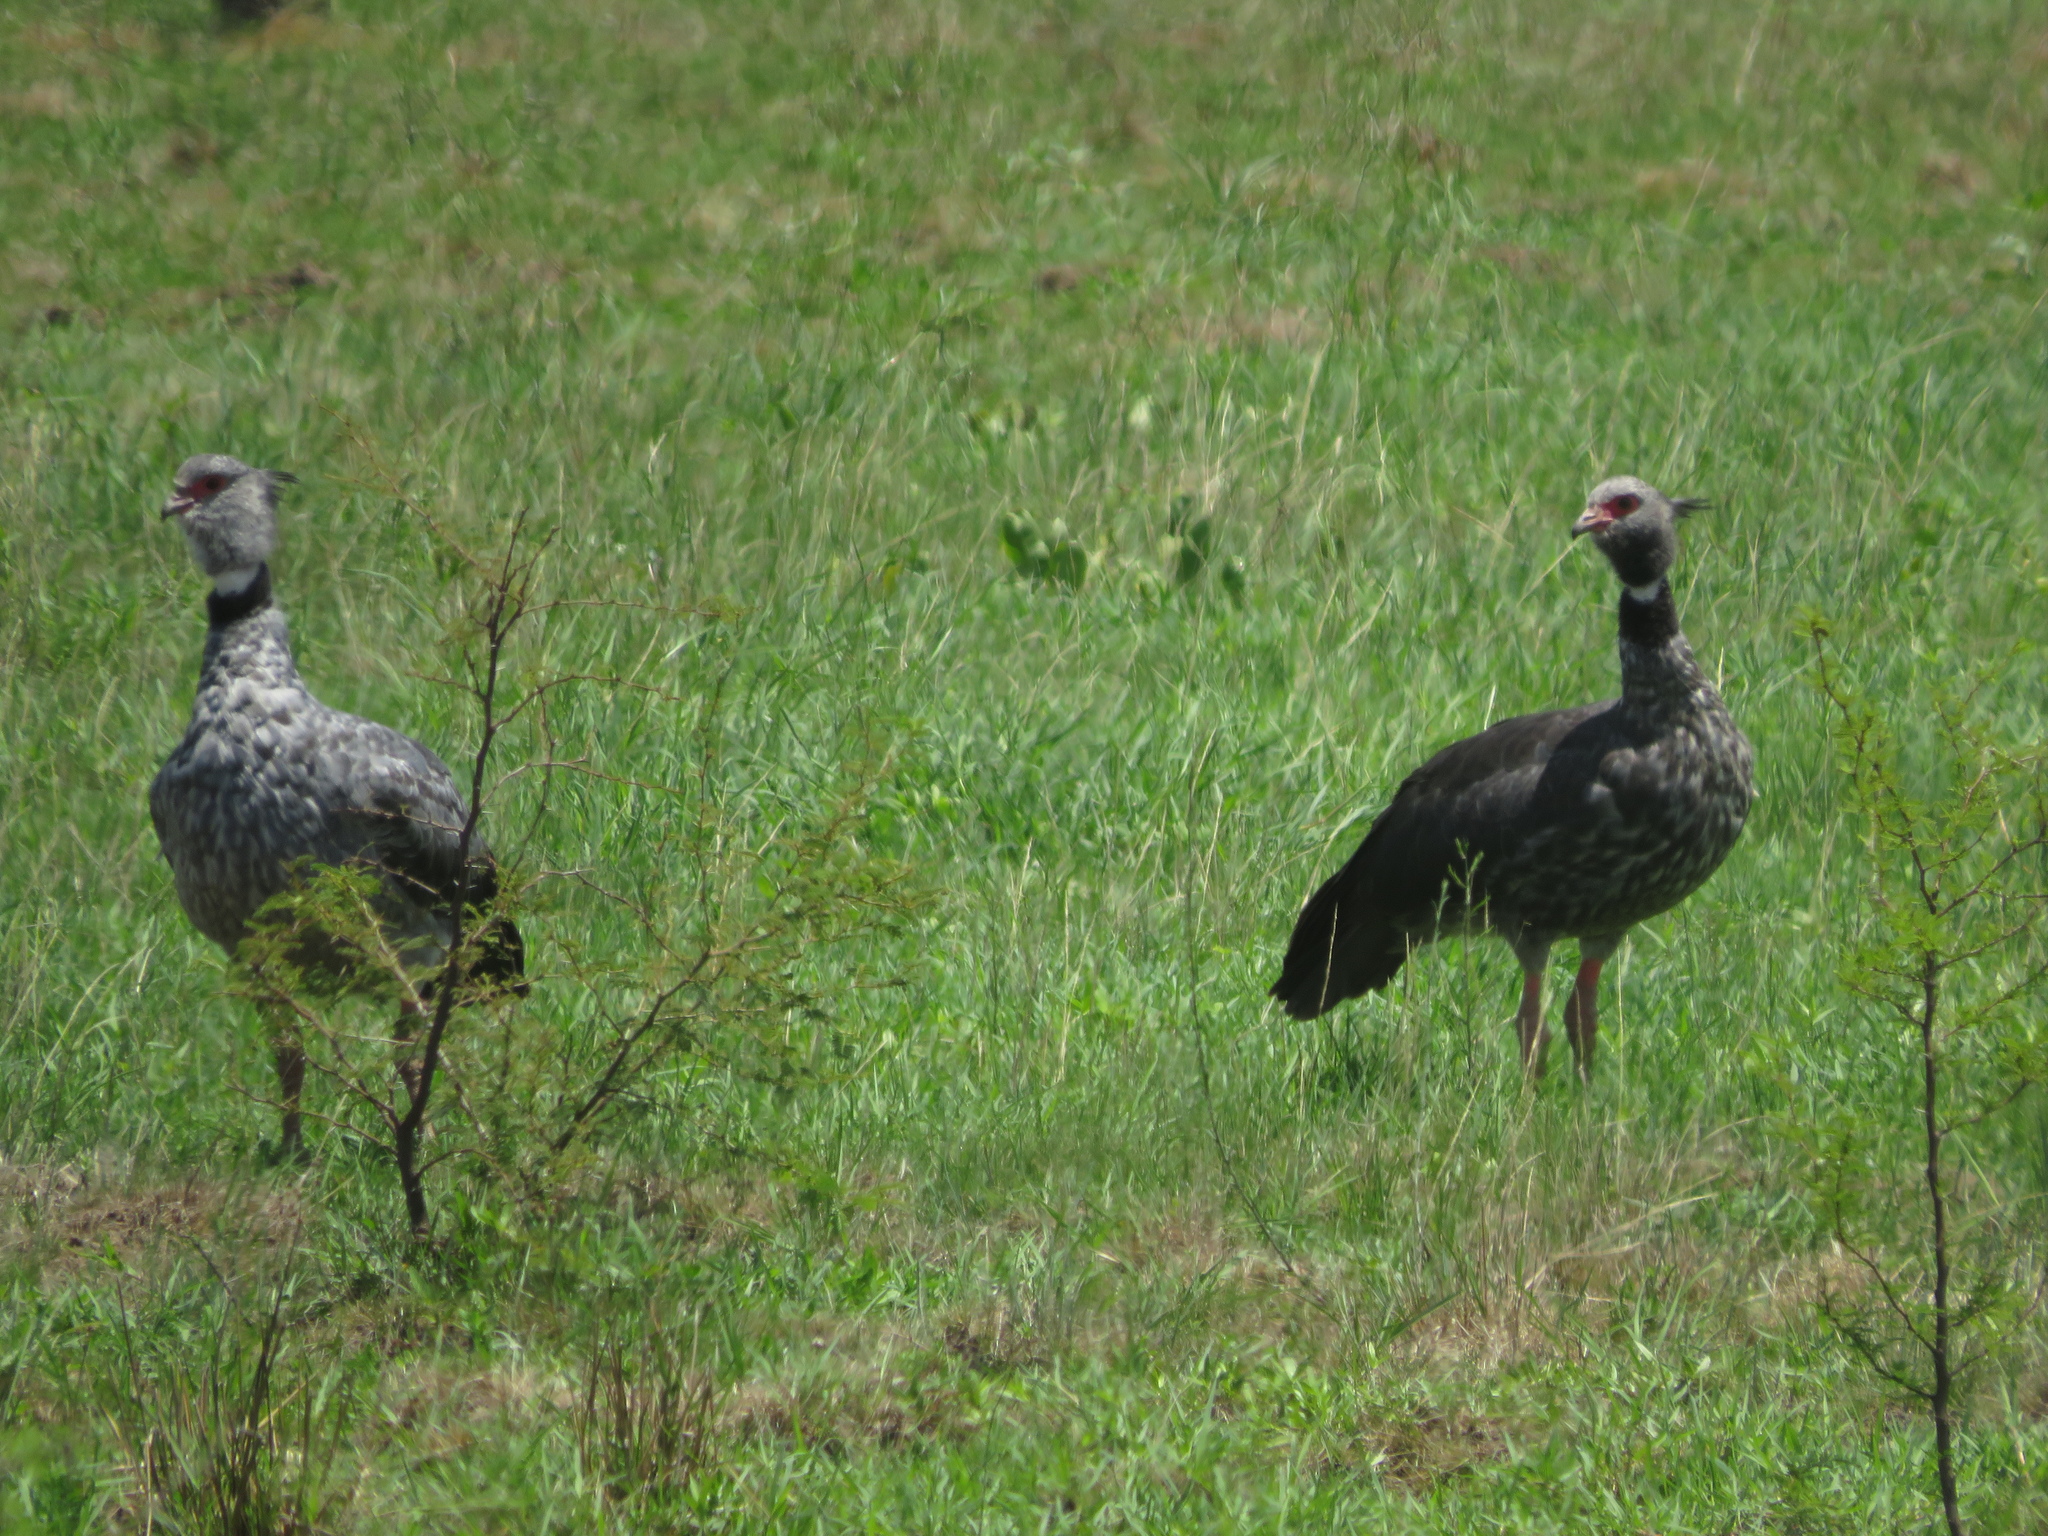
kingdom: Animalia
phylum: Chordata
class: Aves
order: Anseriformes
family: Anhimidae
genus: Chauna
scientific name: Chauna torquata
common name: Southern screamer
